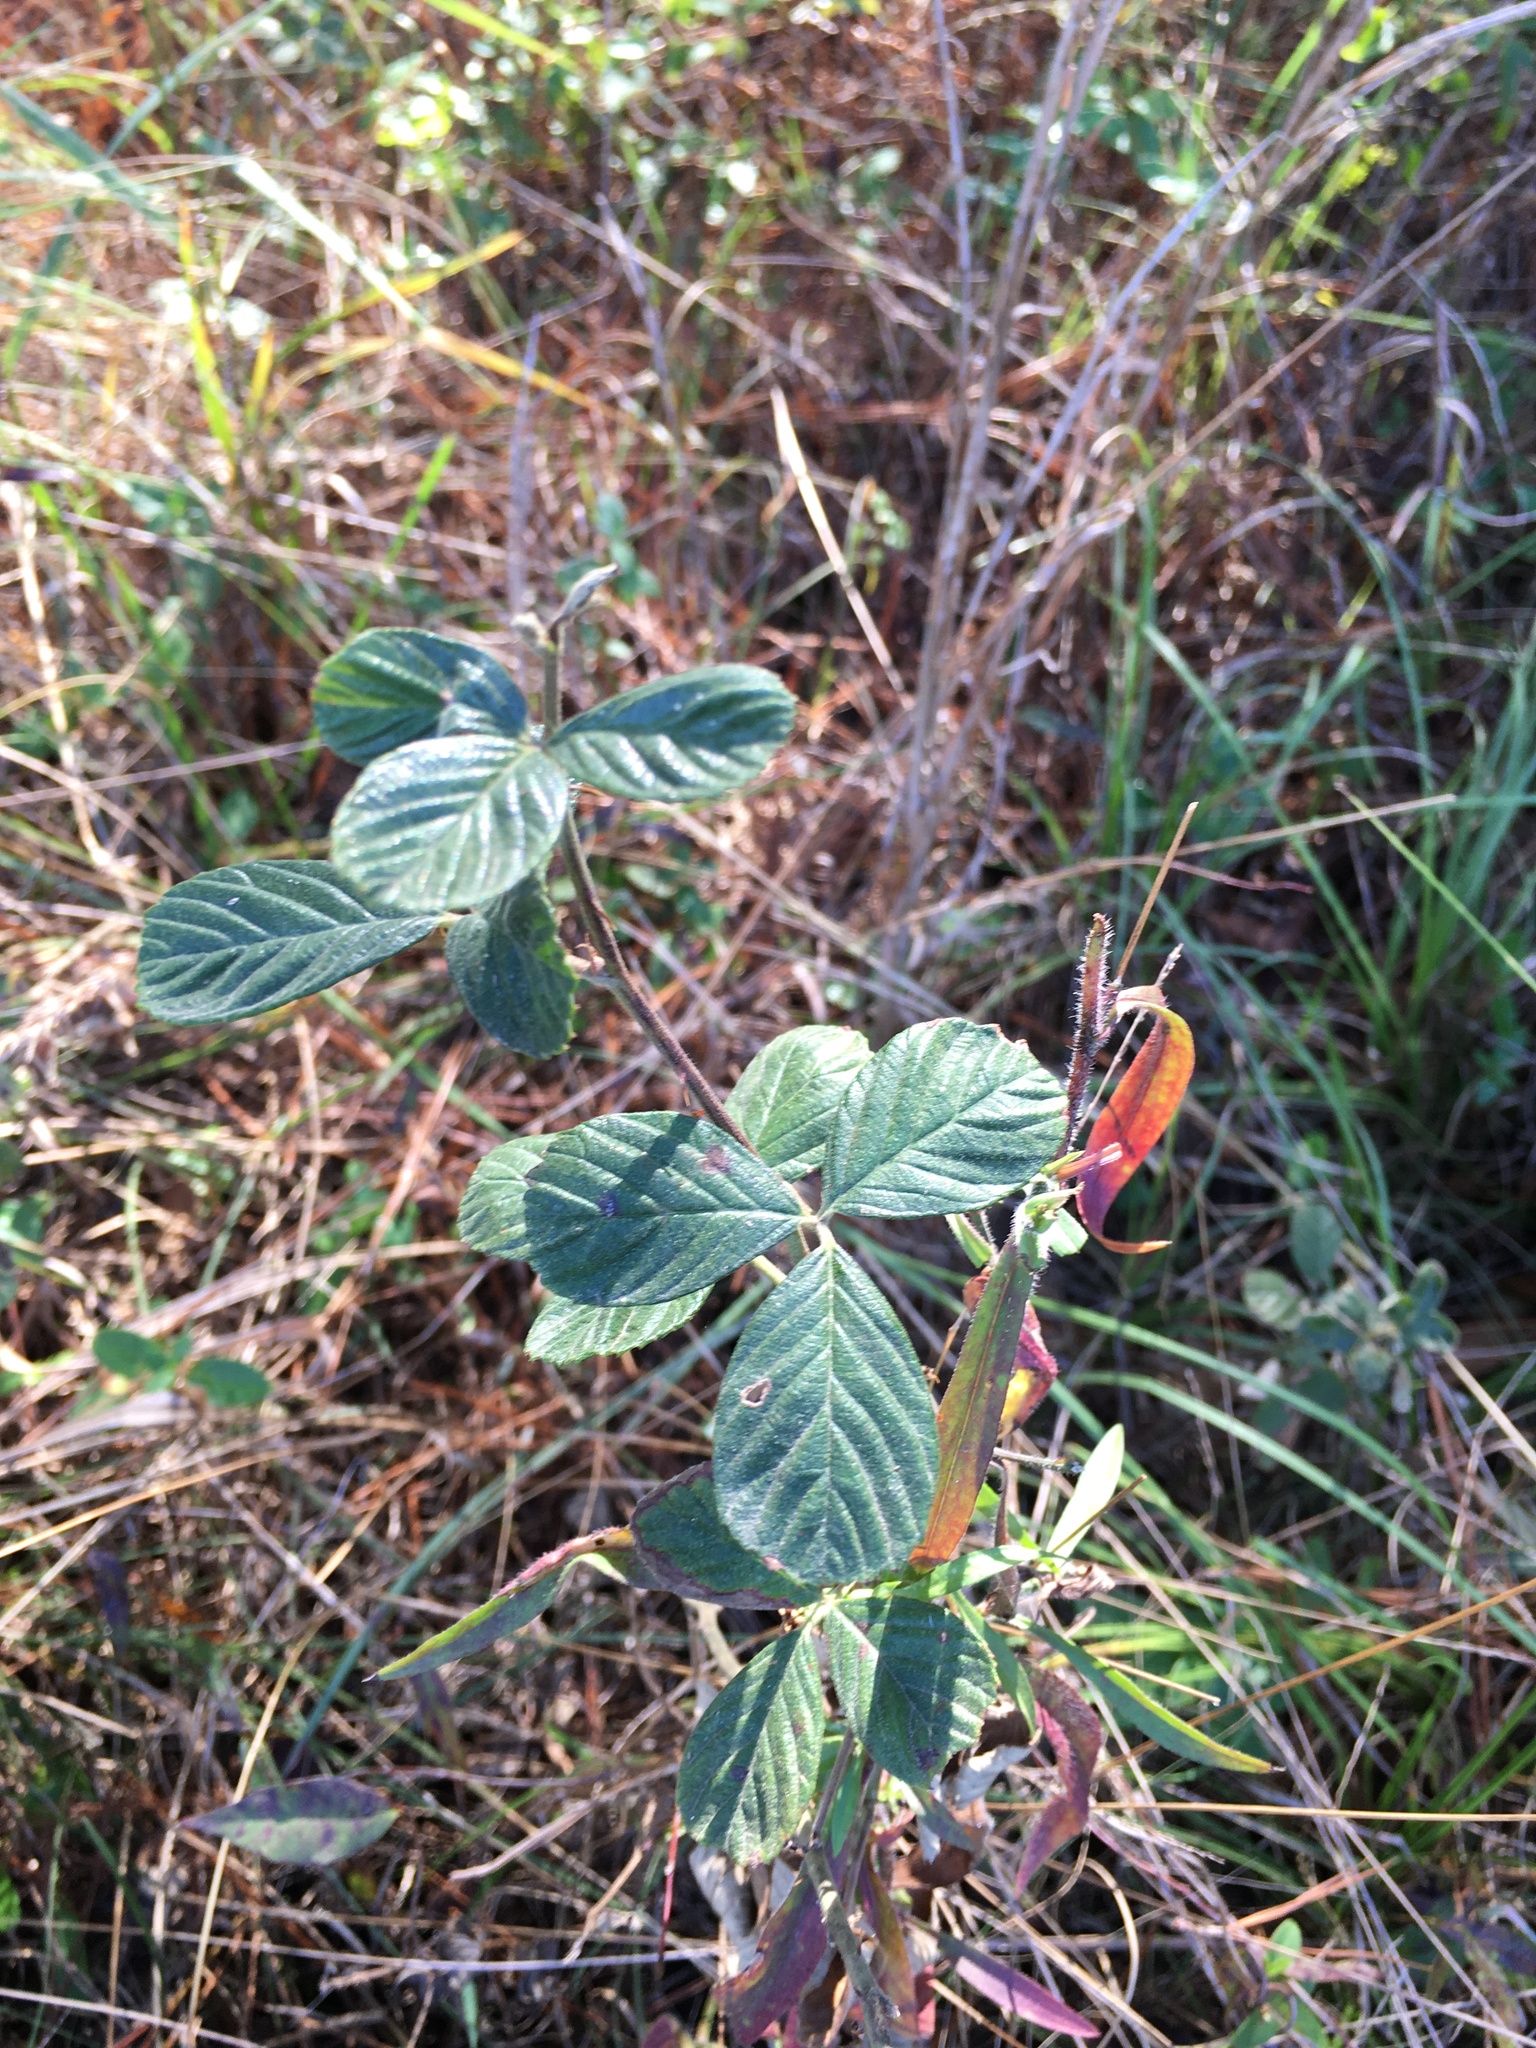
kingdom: Plantae
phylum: Tracheophyta
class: Magnoliopsida
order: Rosales
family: Rosaceae
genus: Rubus
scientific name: Rubus cuneifolius
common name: American bramble
